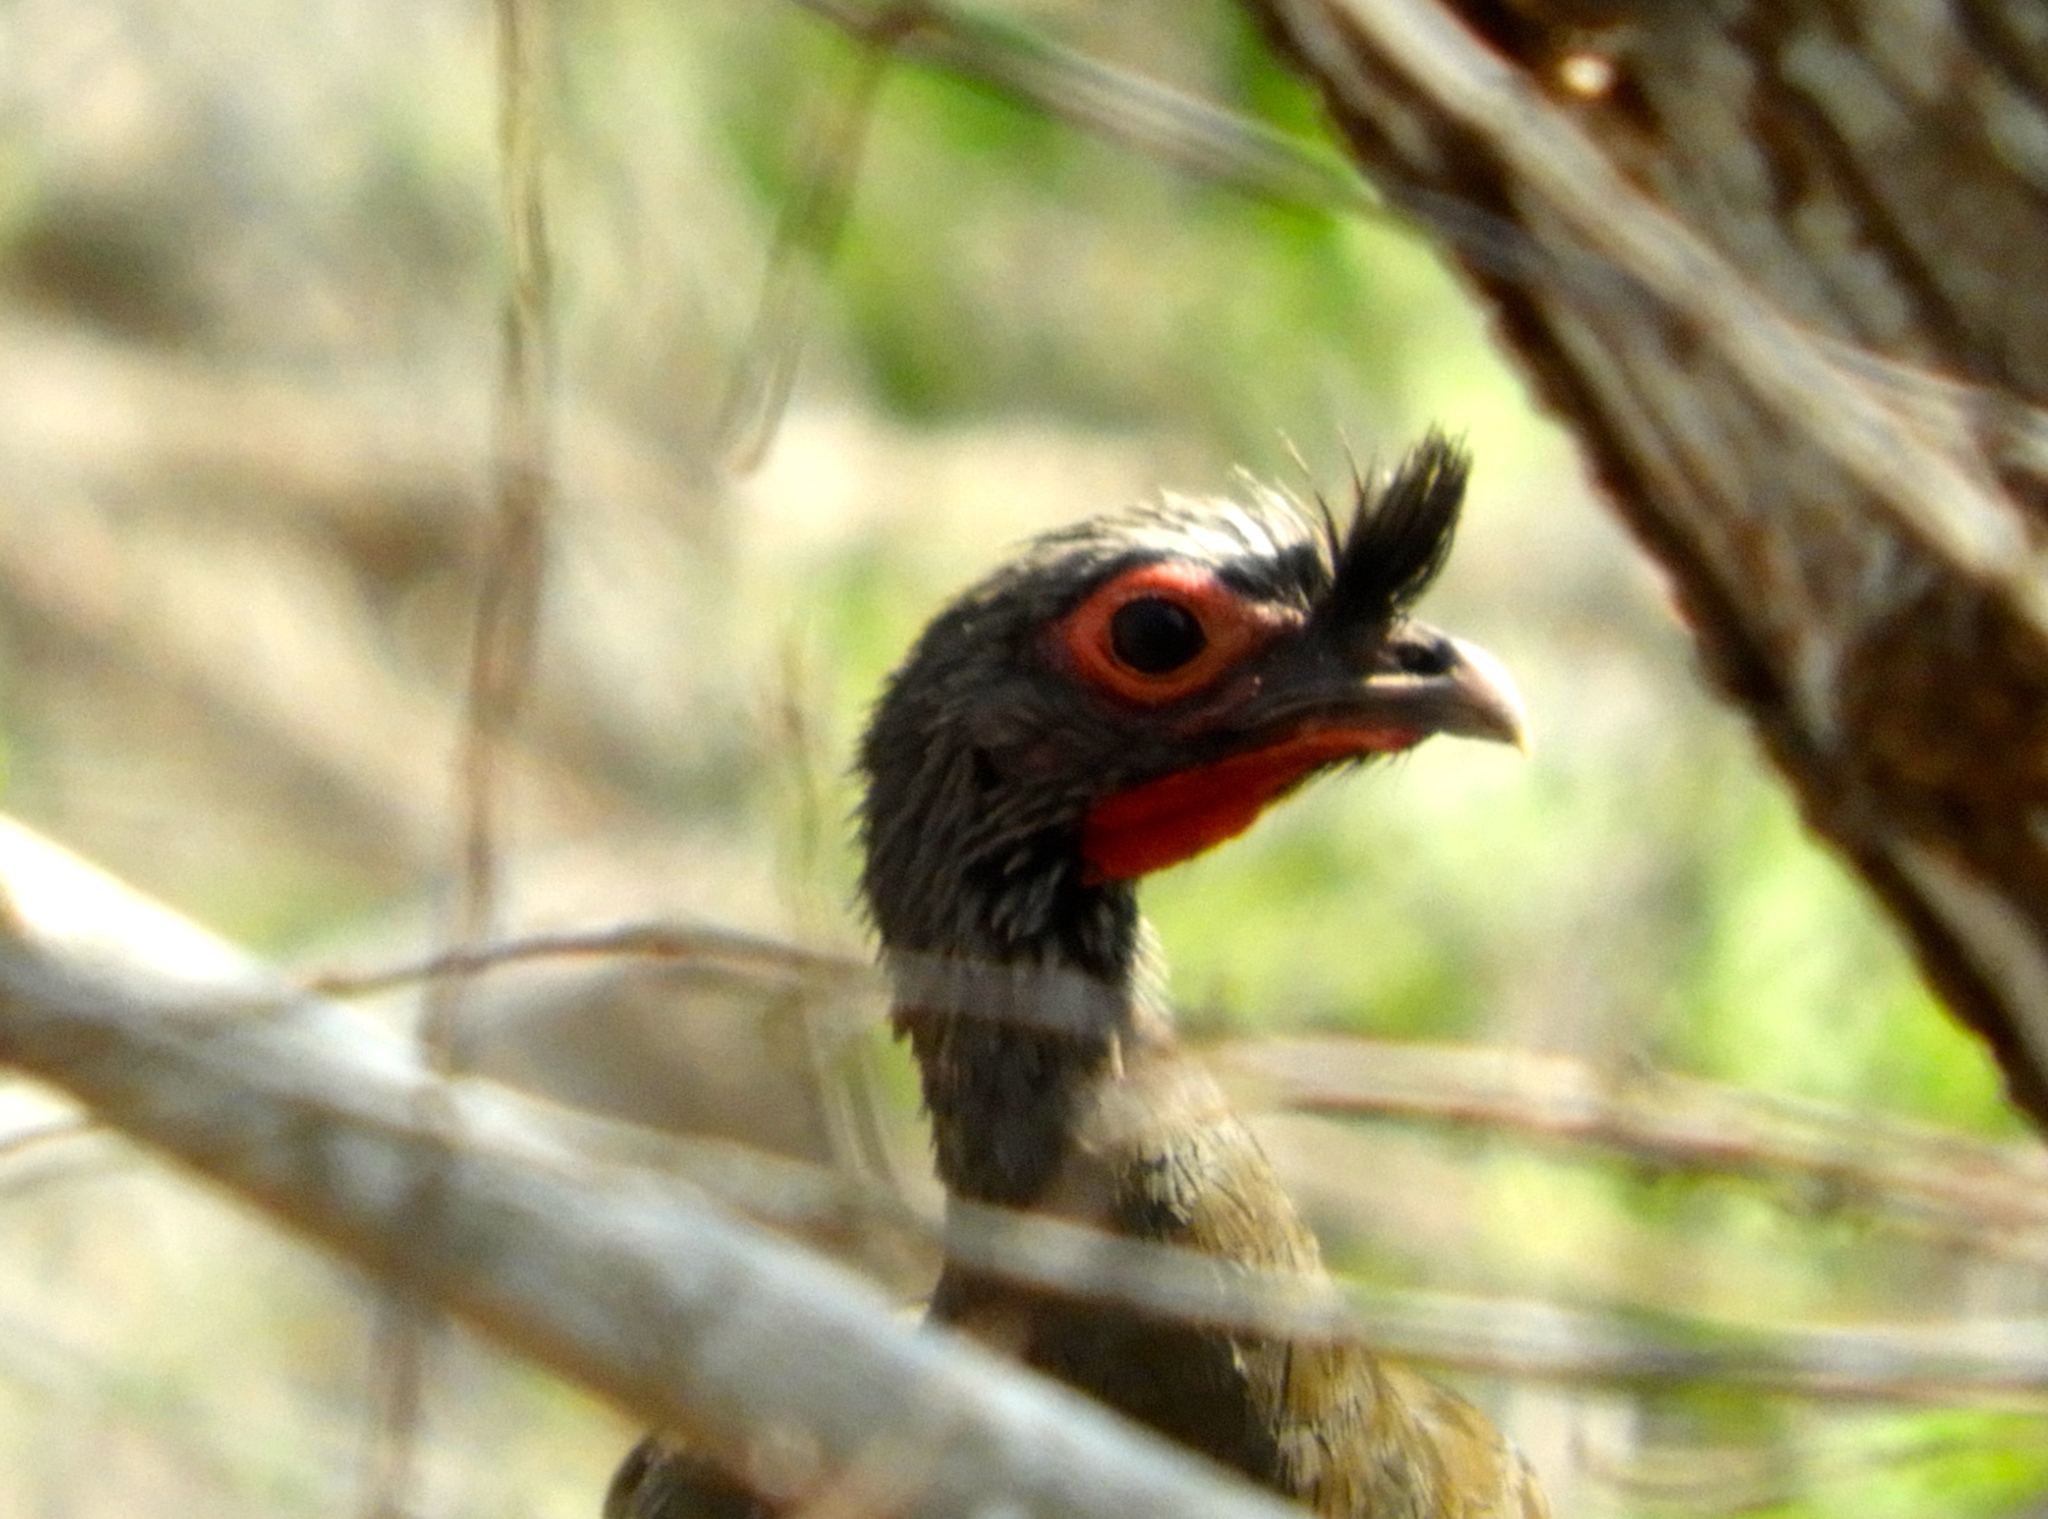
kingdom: Animalia
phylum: Chordata
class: Aves
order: Galliformes
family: Cracidae
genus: Ortalis
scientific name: Ortalis wagleri
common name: Rufous-bellied chachalaca
